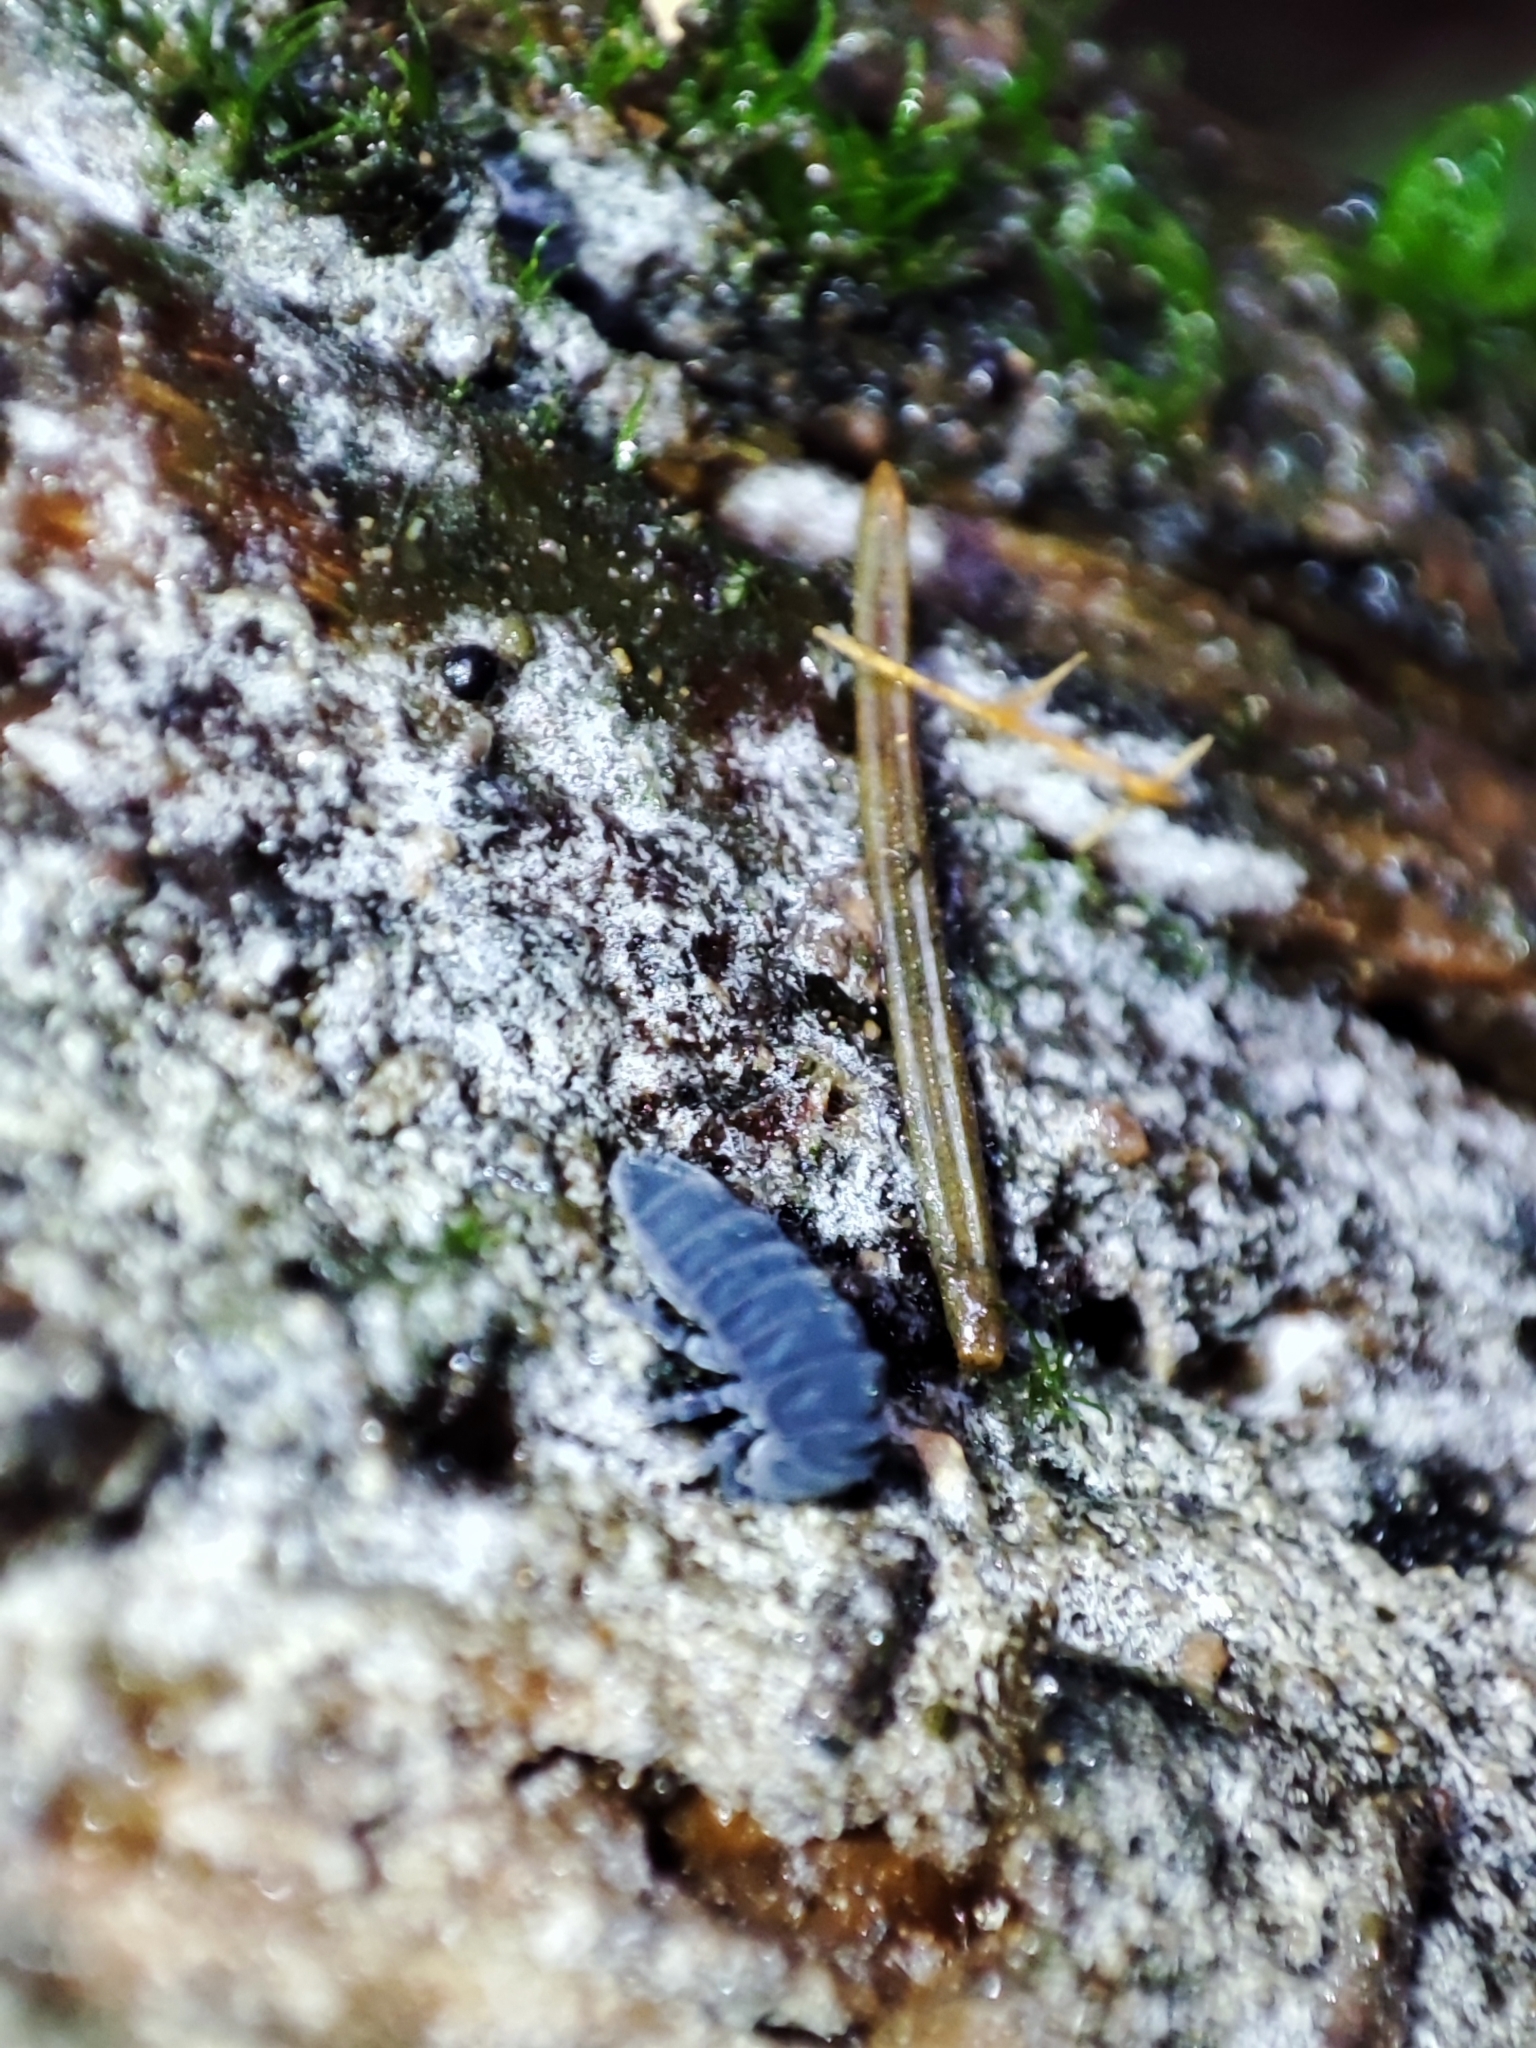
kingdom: Animalia
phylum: Arthropoda
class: Collembola
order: Poduromorpha
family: Onychiuridae
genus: Tetrodontophora
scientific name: Tetrodontophora bielanensis
